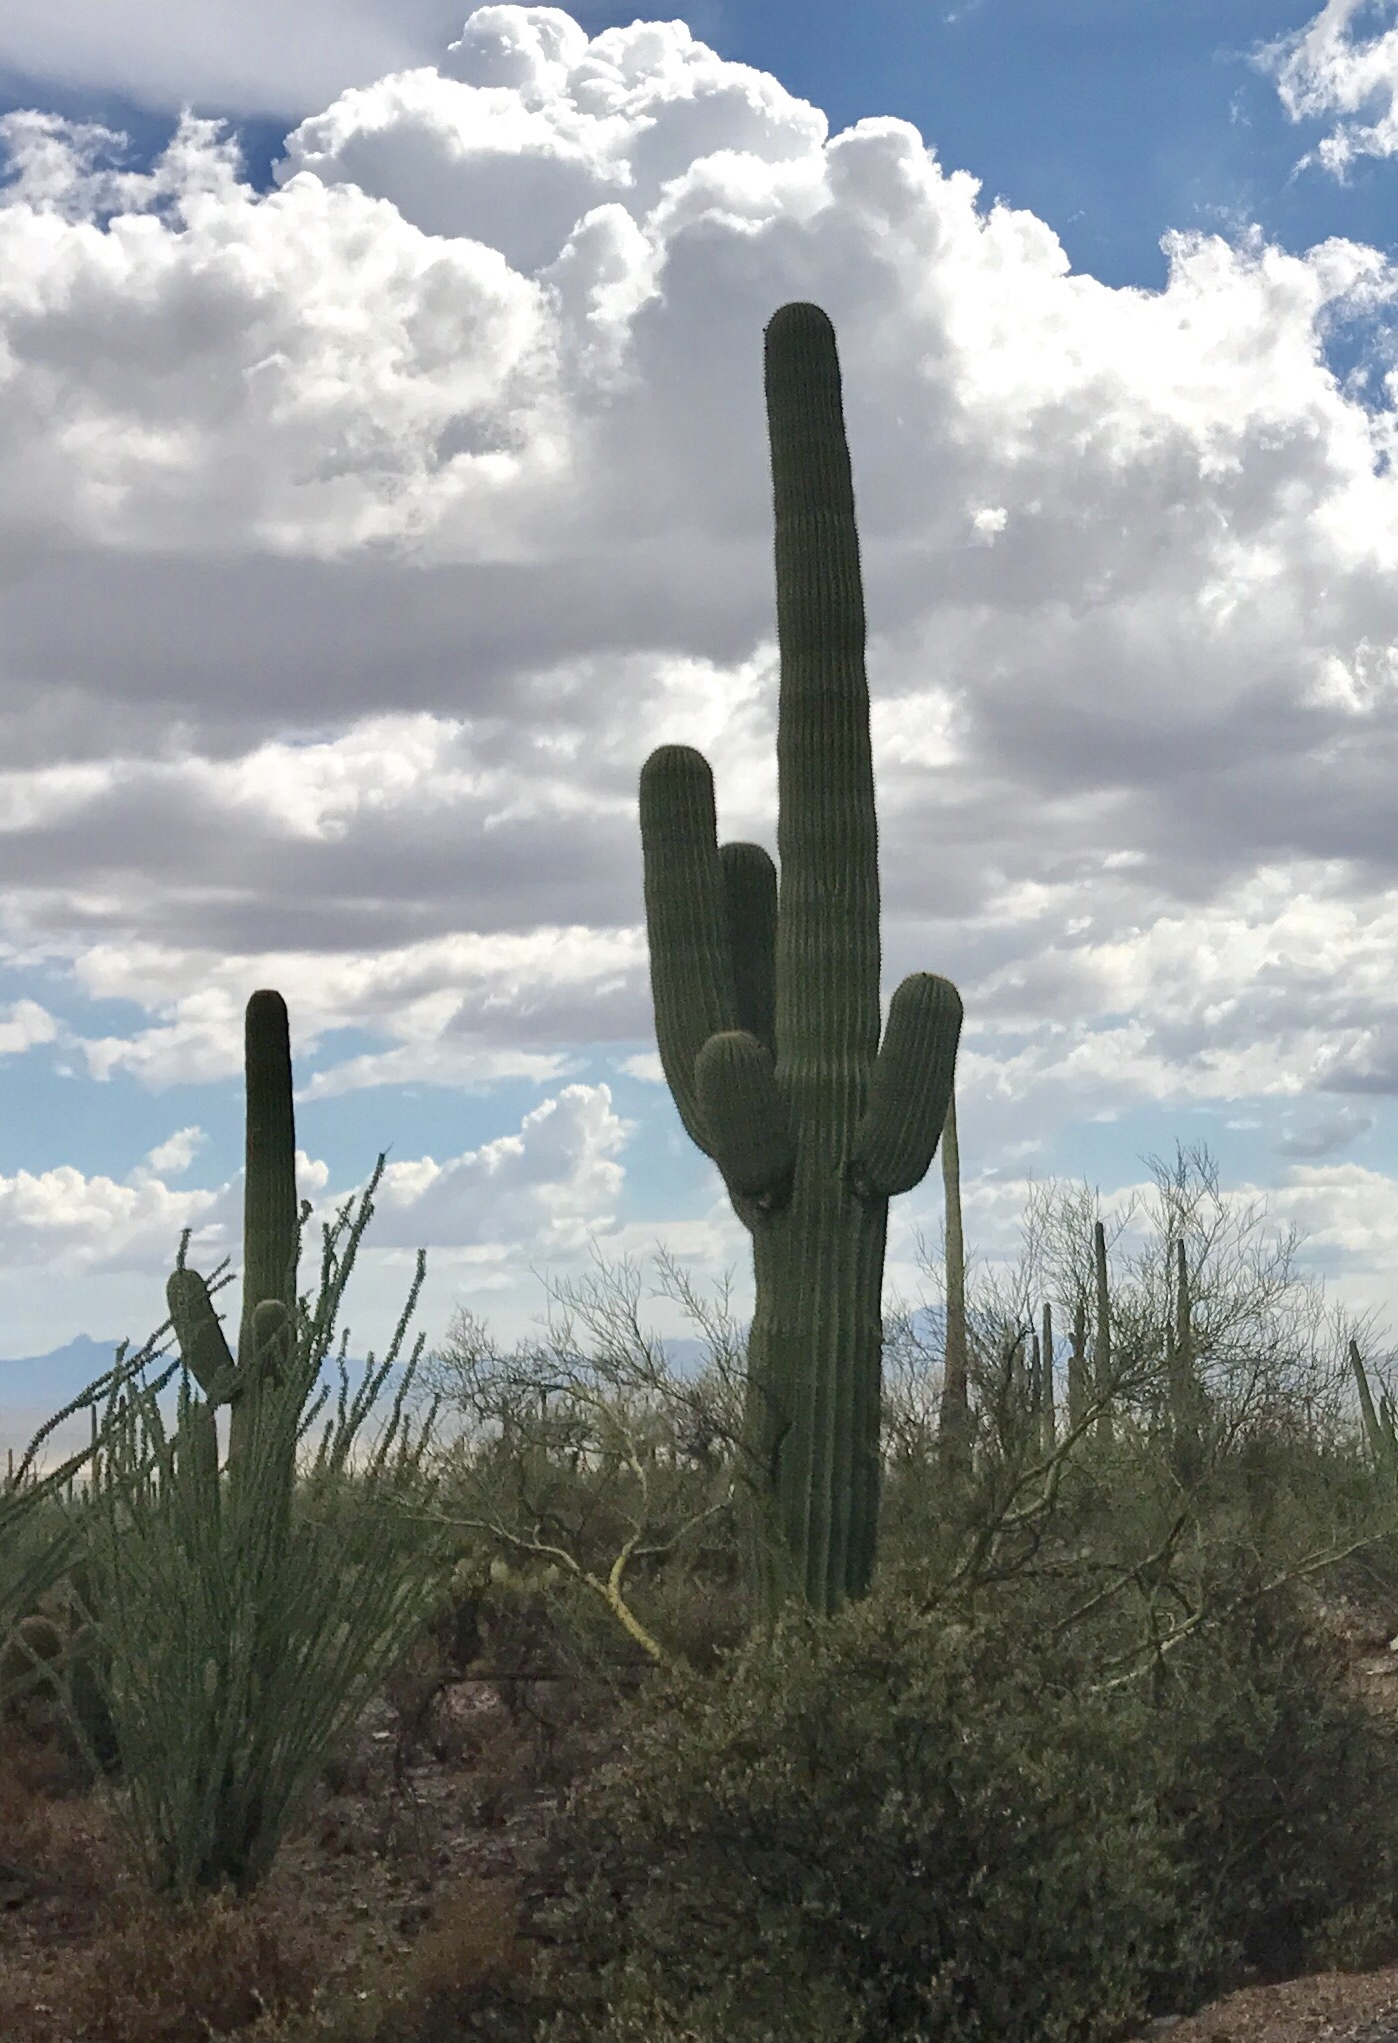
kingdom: Plantae
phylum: Tracheophyta
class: Magnoliopsida
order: Caryophyllales
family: Cactaceae
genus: Carnegiea
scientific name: Carnegiea gigantea
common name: Saguaro
